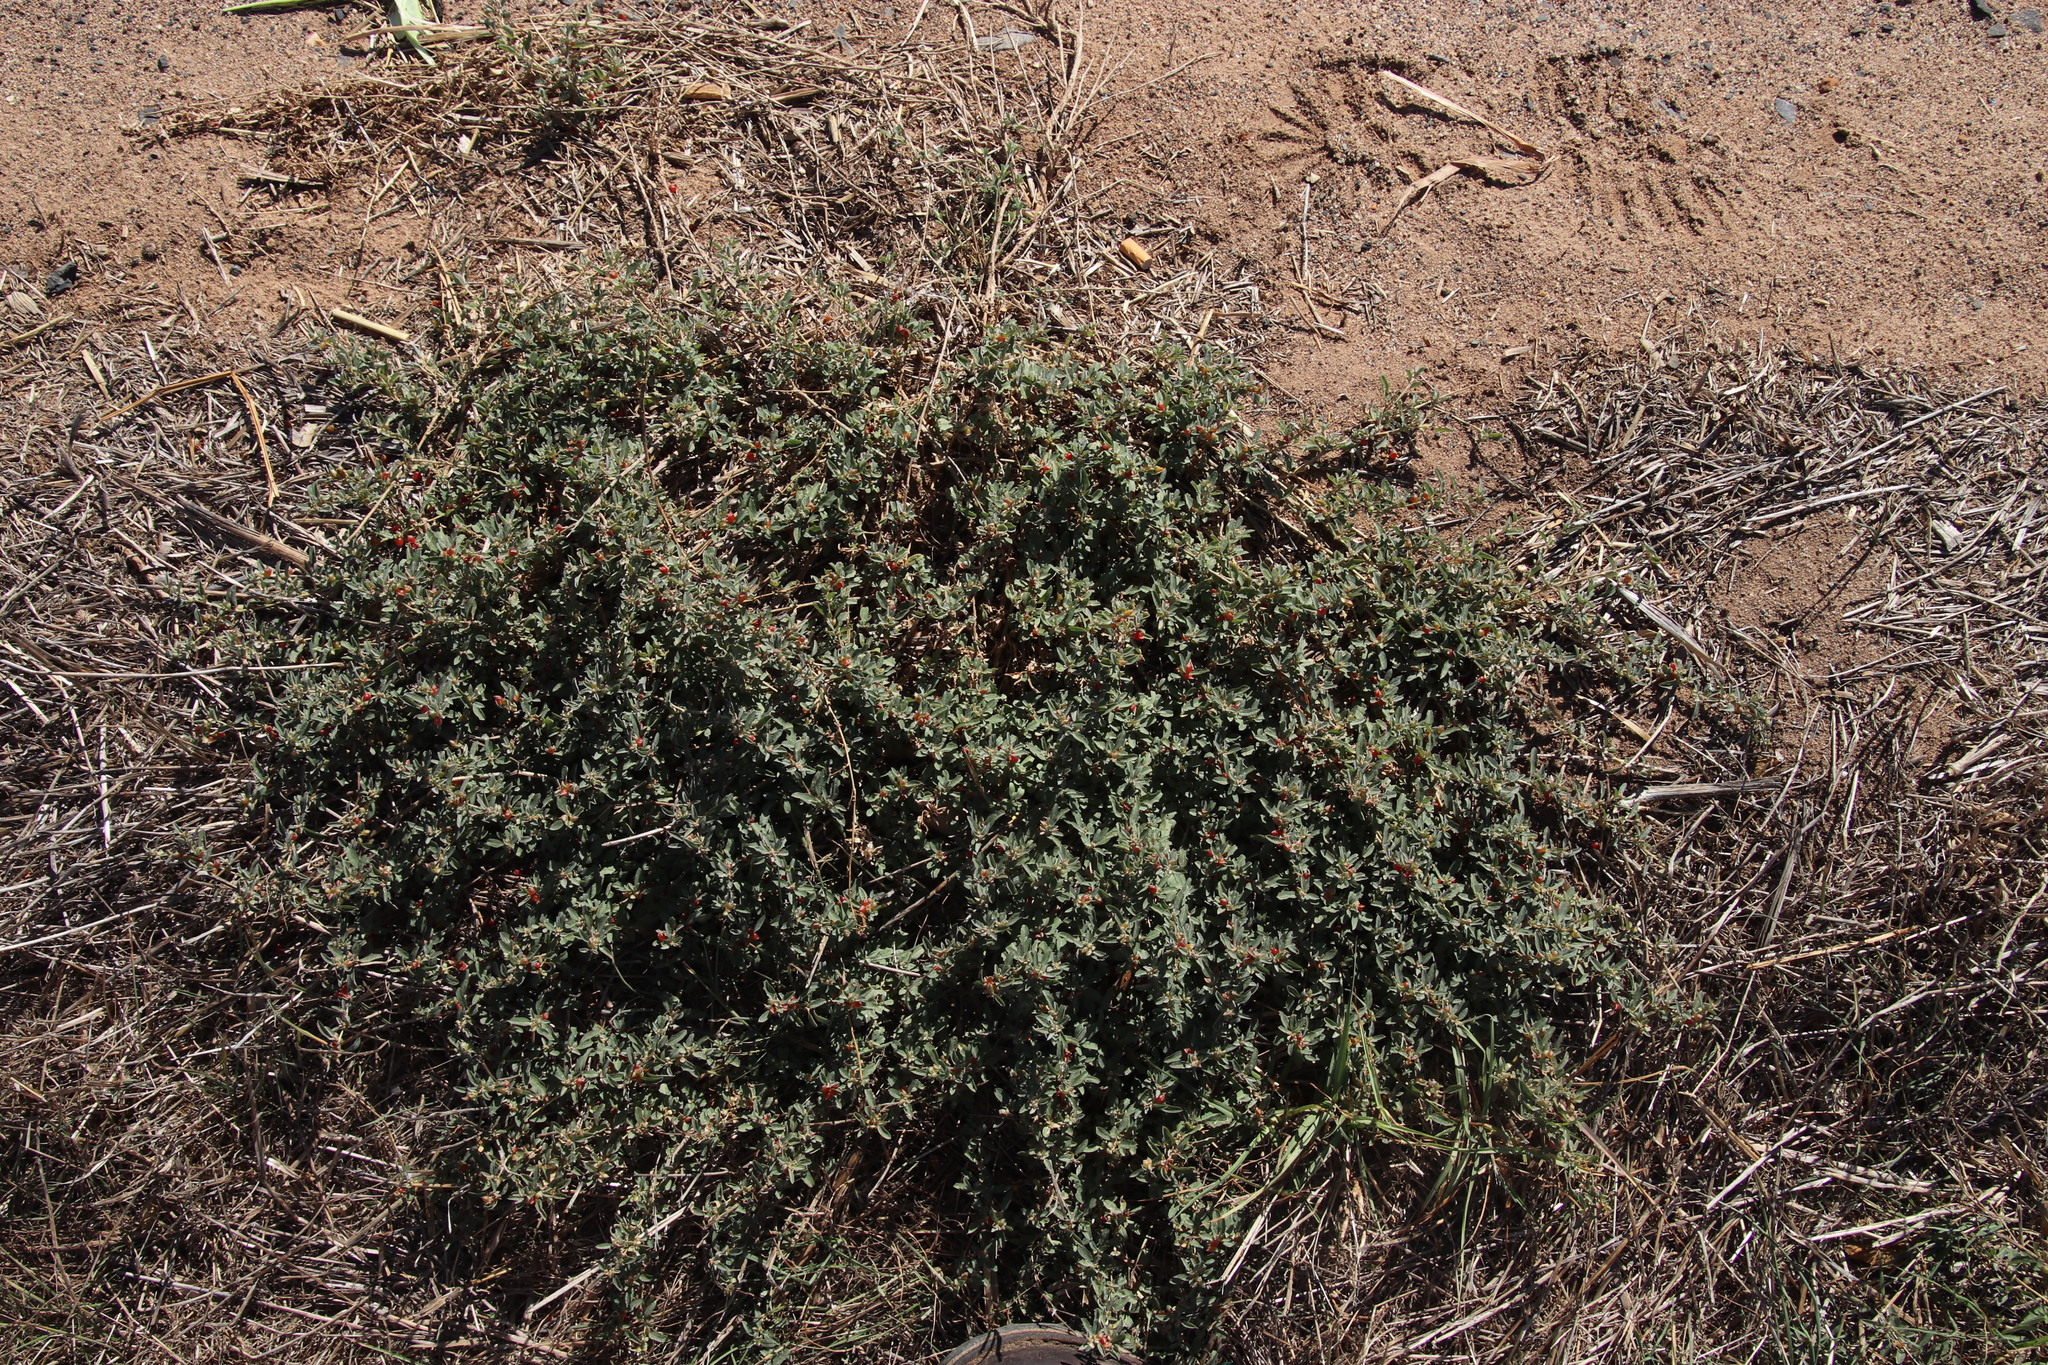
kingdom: Plantae
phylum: Tracheophyta
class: Magnoliopsida
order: Caryophyllales
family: Amaranthaceae
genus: Atriplex
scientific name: Atriplex semibaccata
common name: Australian saltbush
